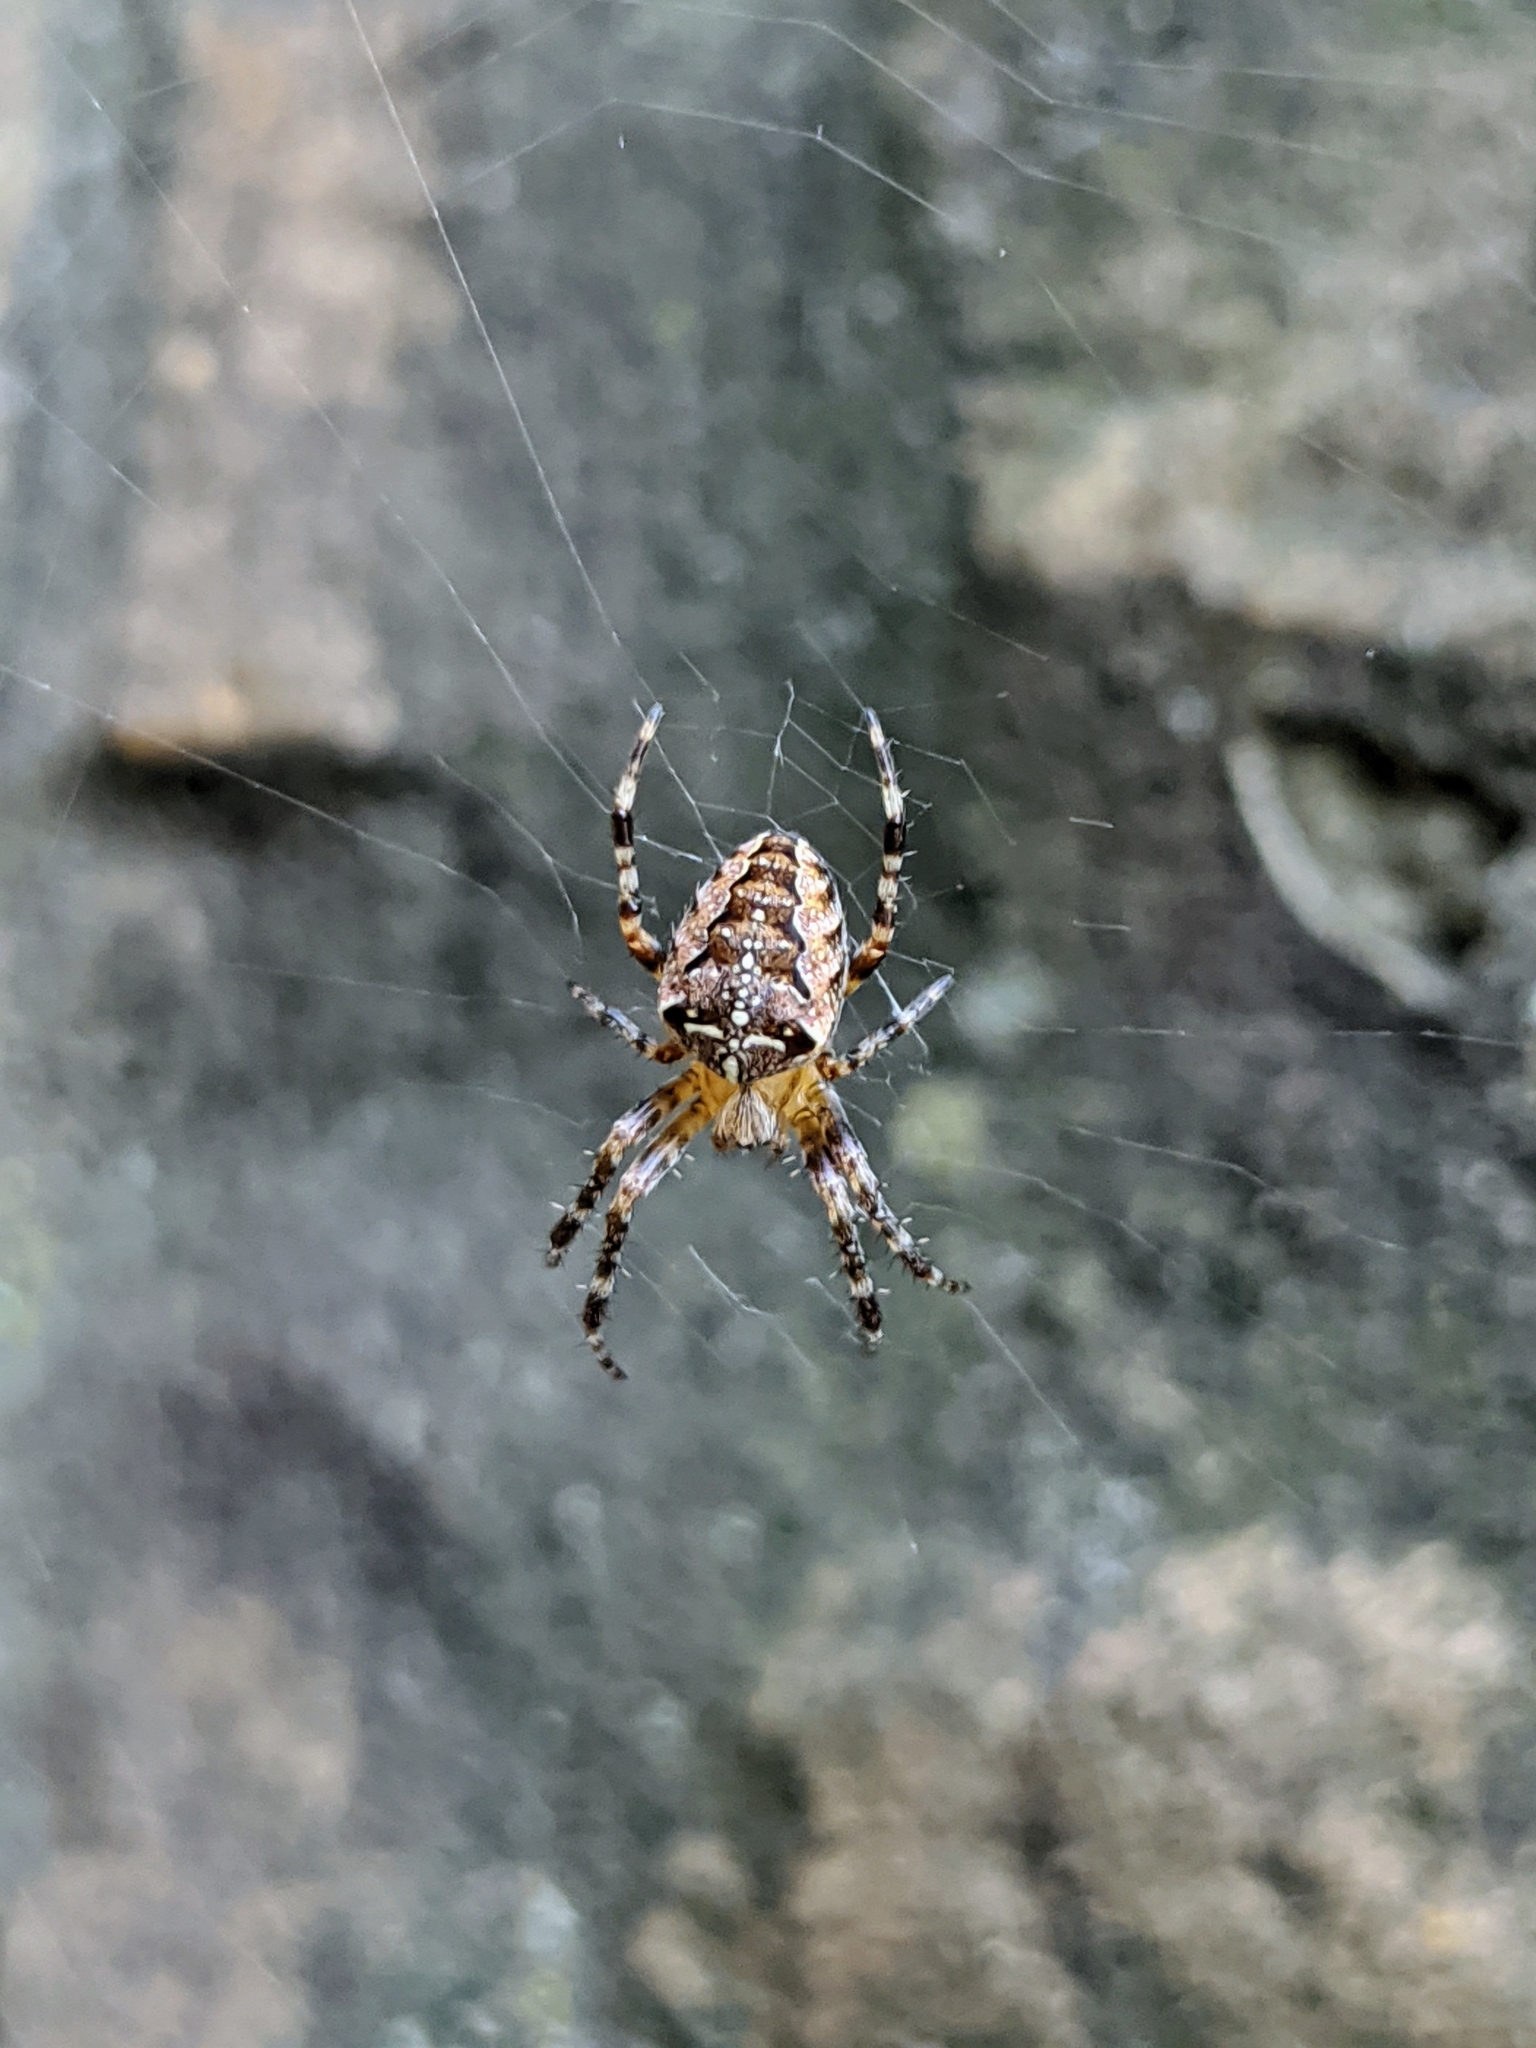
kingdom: Animalia
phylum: Arthropoda
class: Arachnida
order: Araneae
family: Araneidae
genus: Araneus
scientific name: Araneus diadematus
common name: Cross orbweaver
